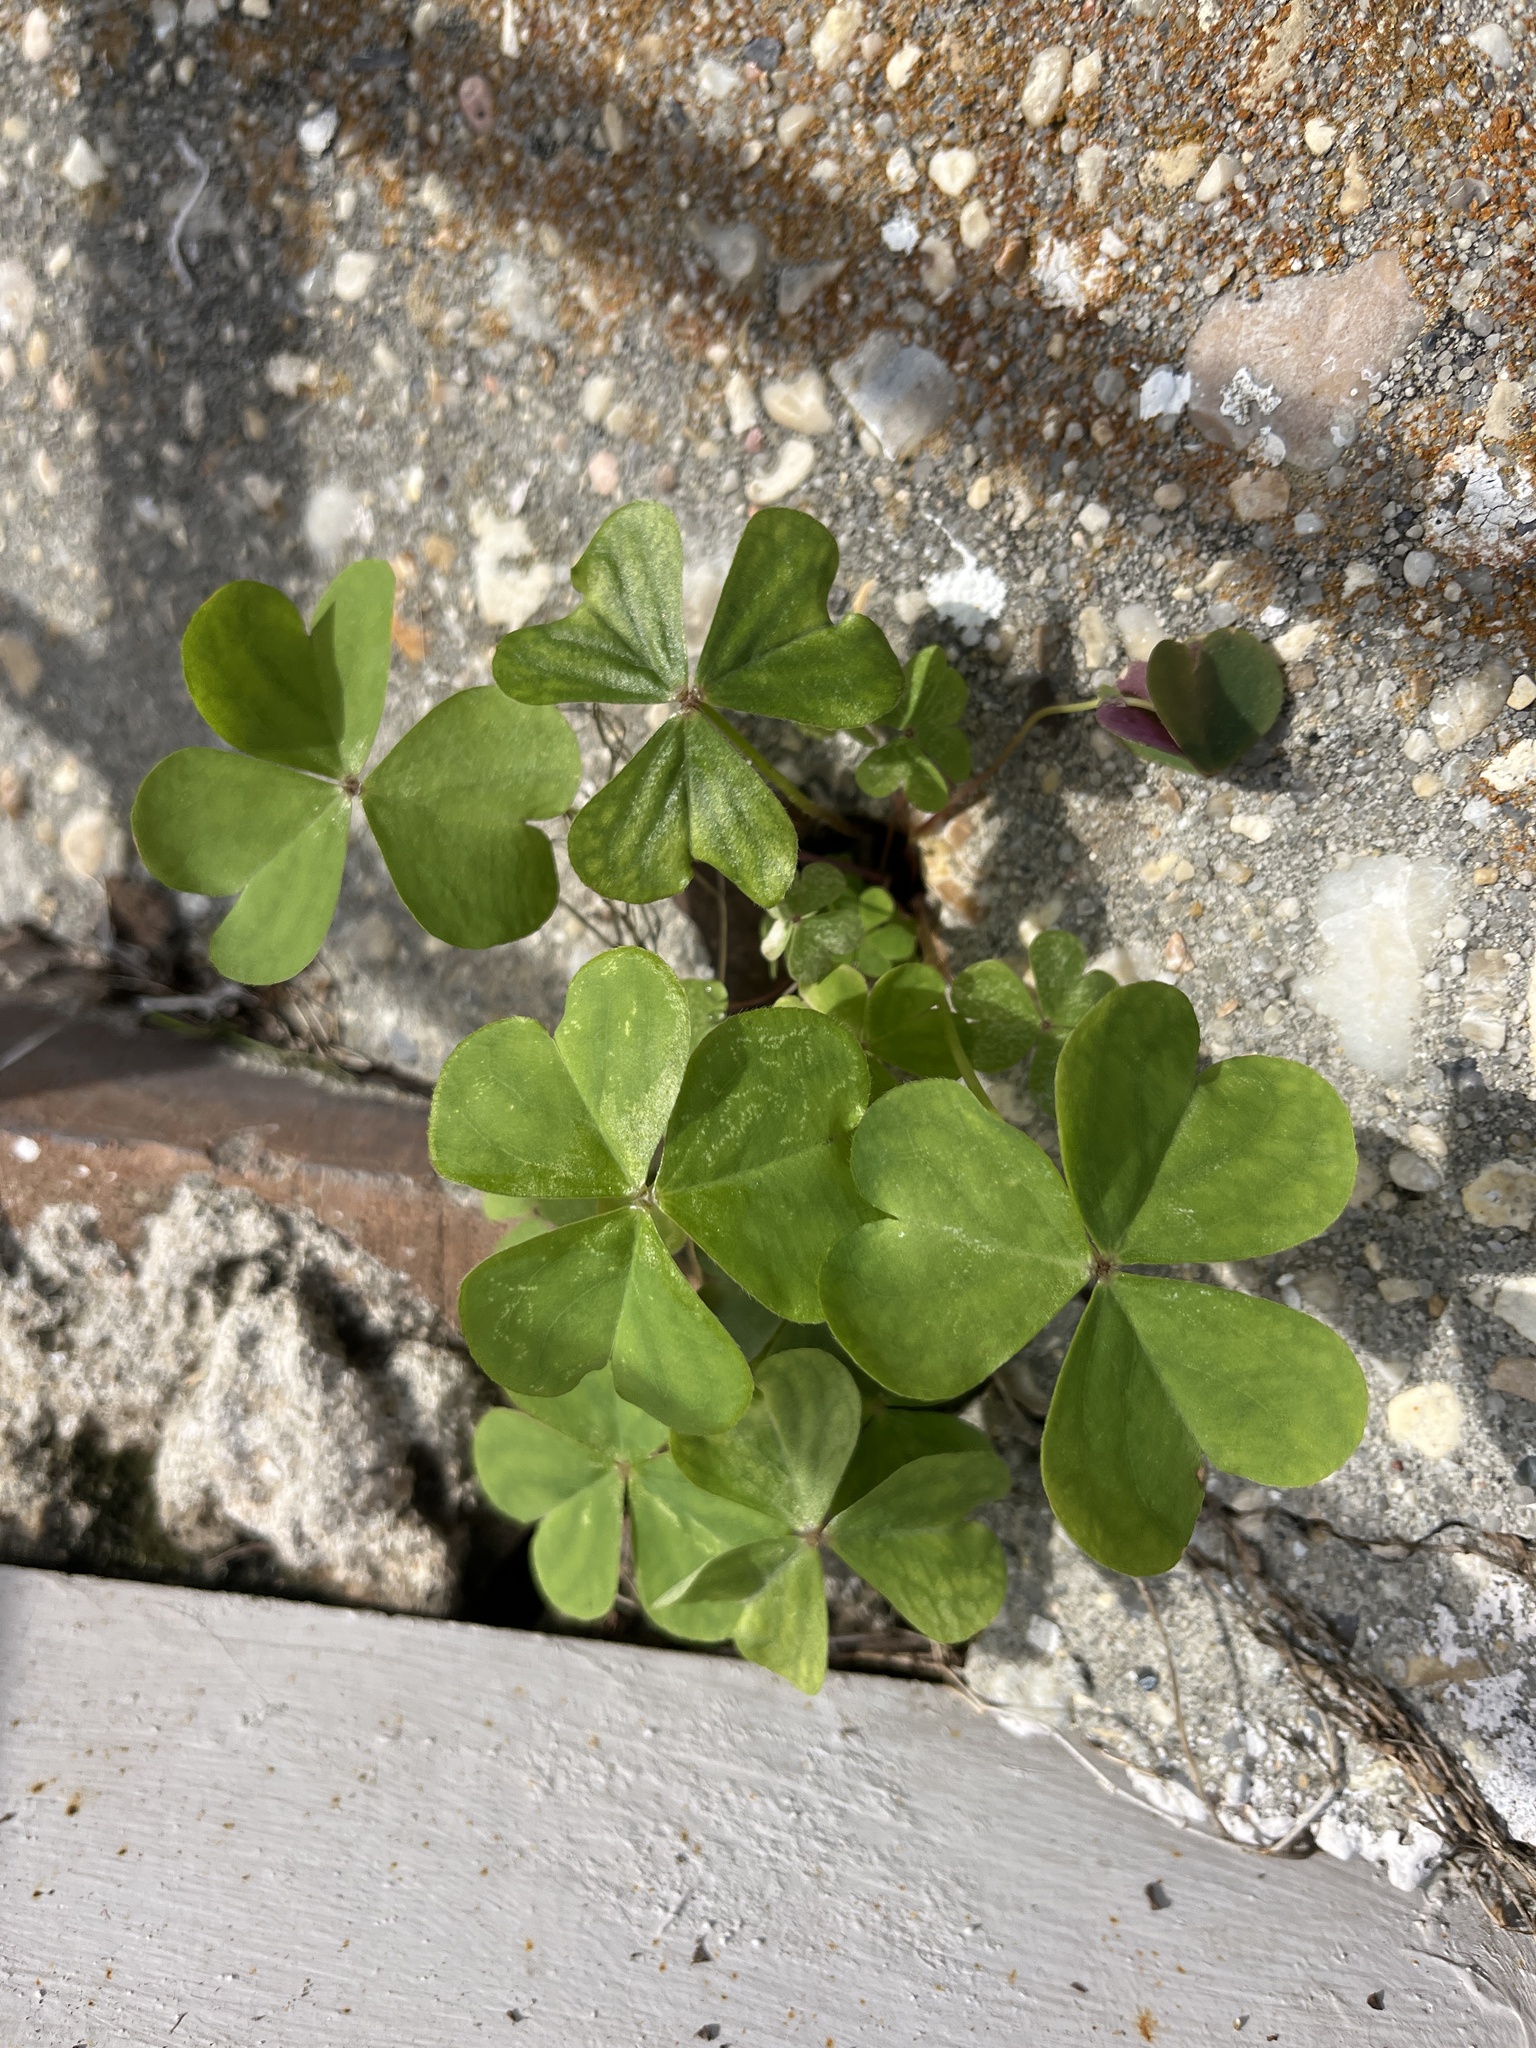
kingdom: Plantae
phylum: Tracheophyta
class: Magnoliopsida
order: Oxalidales
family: Oxalidaceae
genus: Oxalis
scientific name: Oxalis debilis
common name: Large-flowered pink-sorrel
